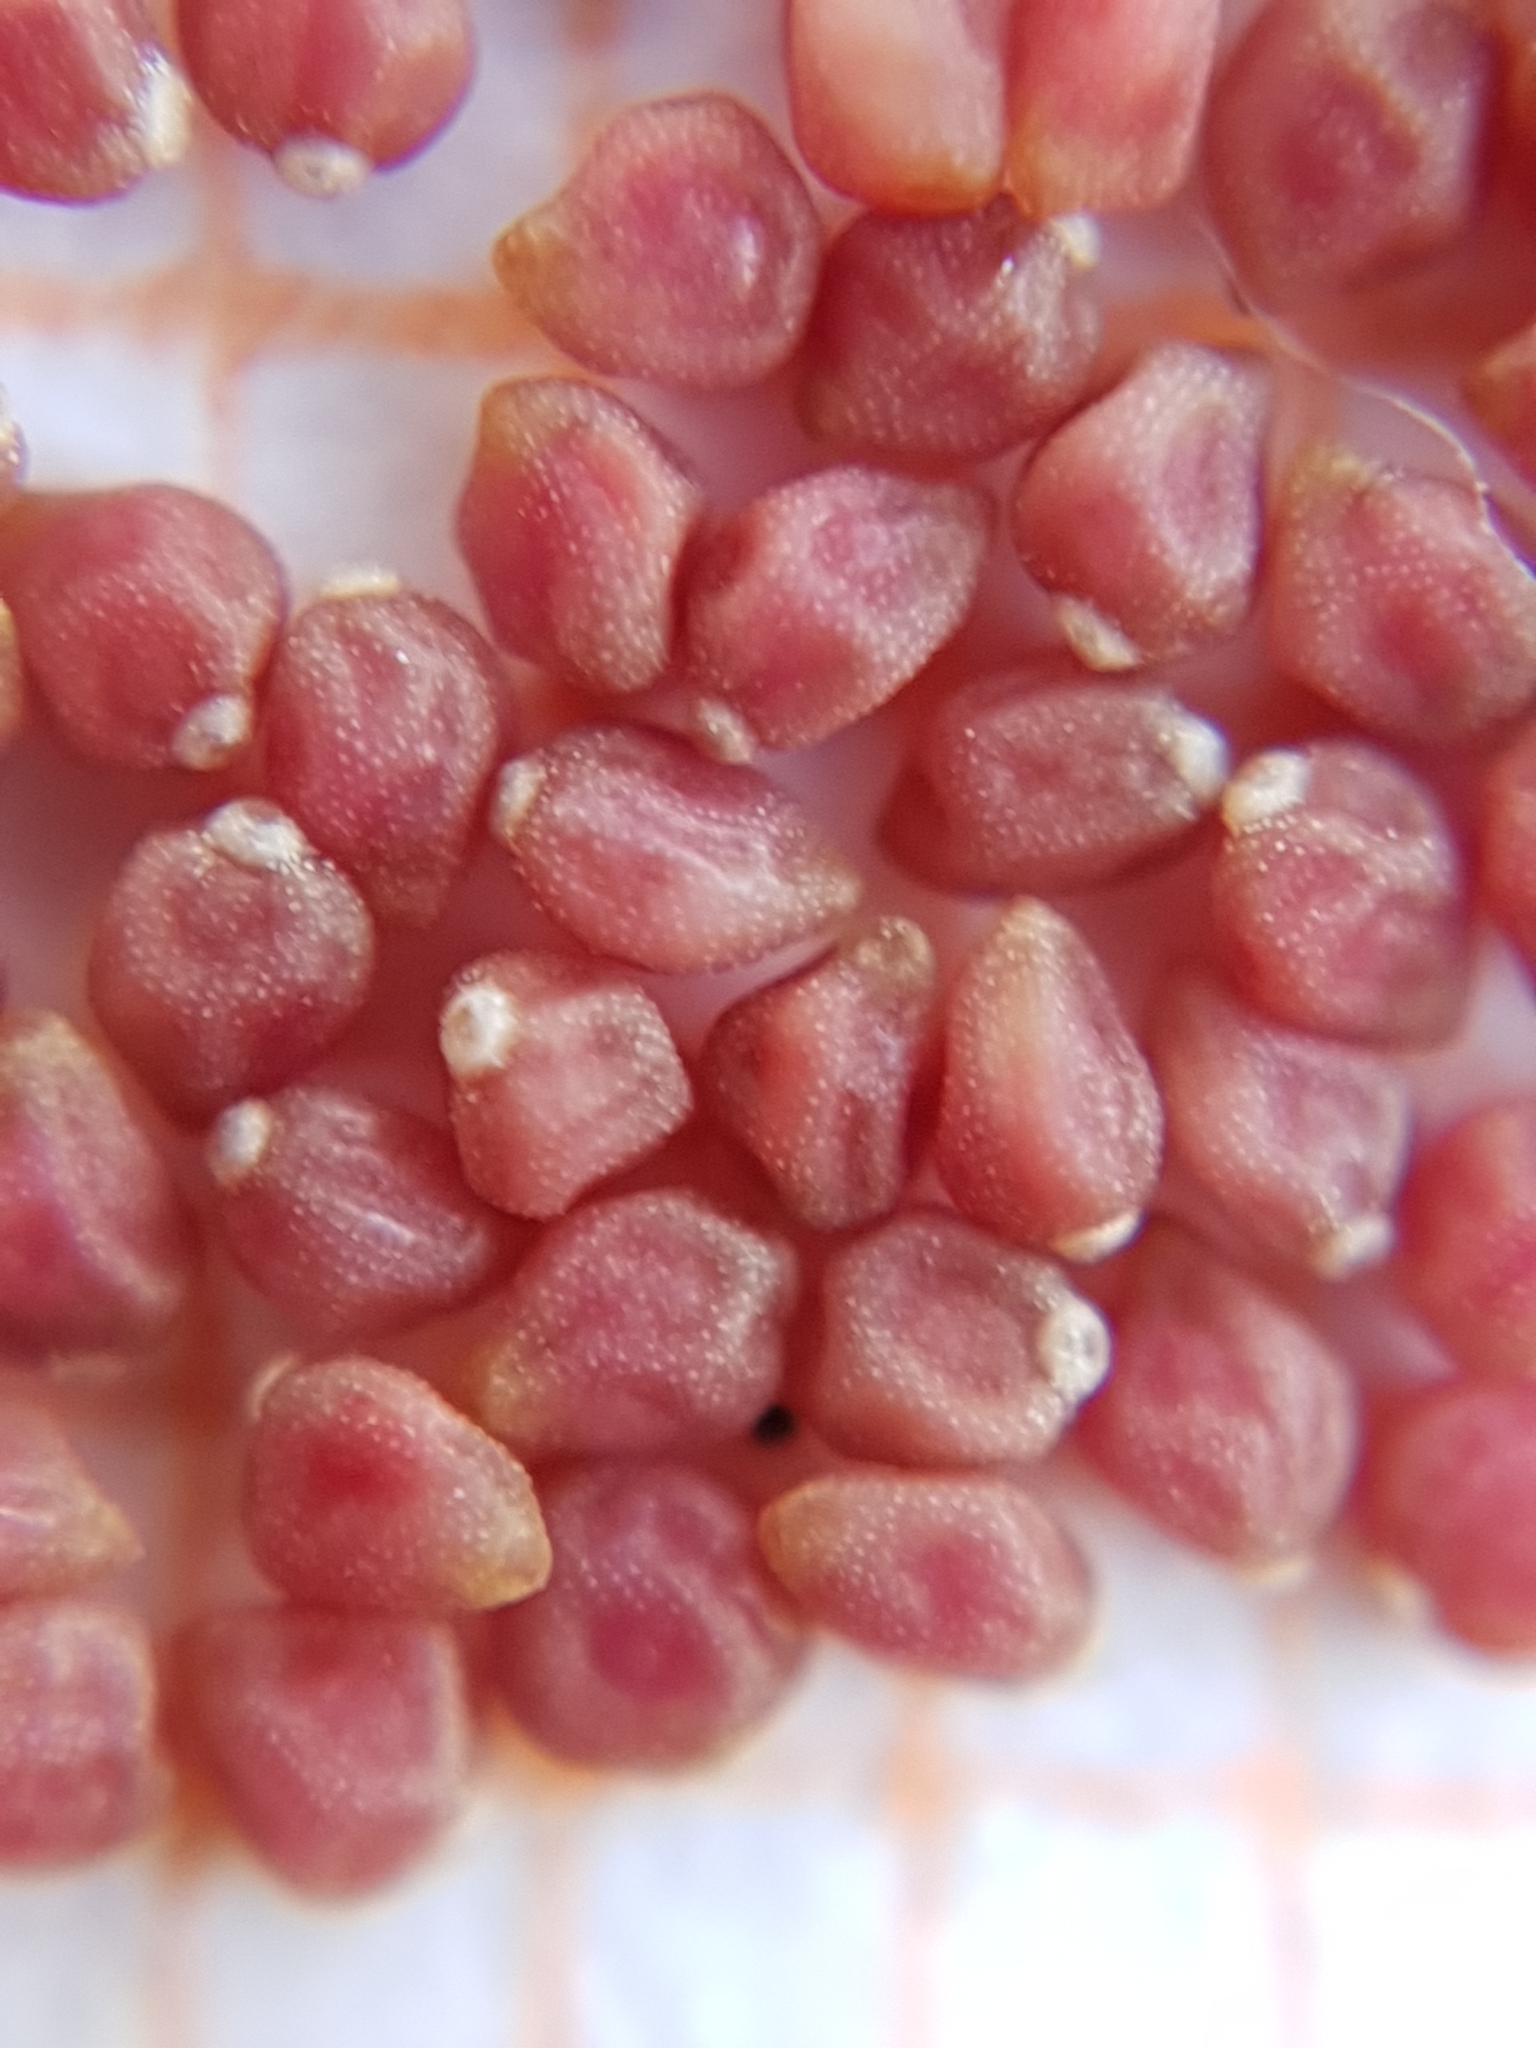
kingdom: Plantae
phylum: Tracheophyta
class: Magnoliopsida
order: Malvales
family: Cistaceae
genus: Helianthemum
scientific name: Helianthemum ledifolium
